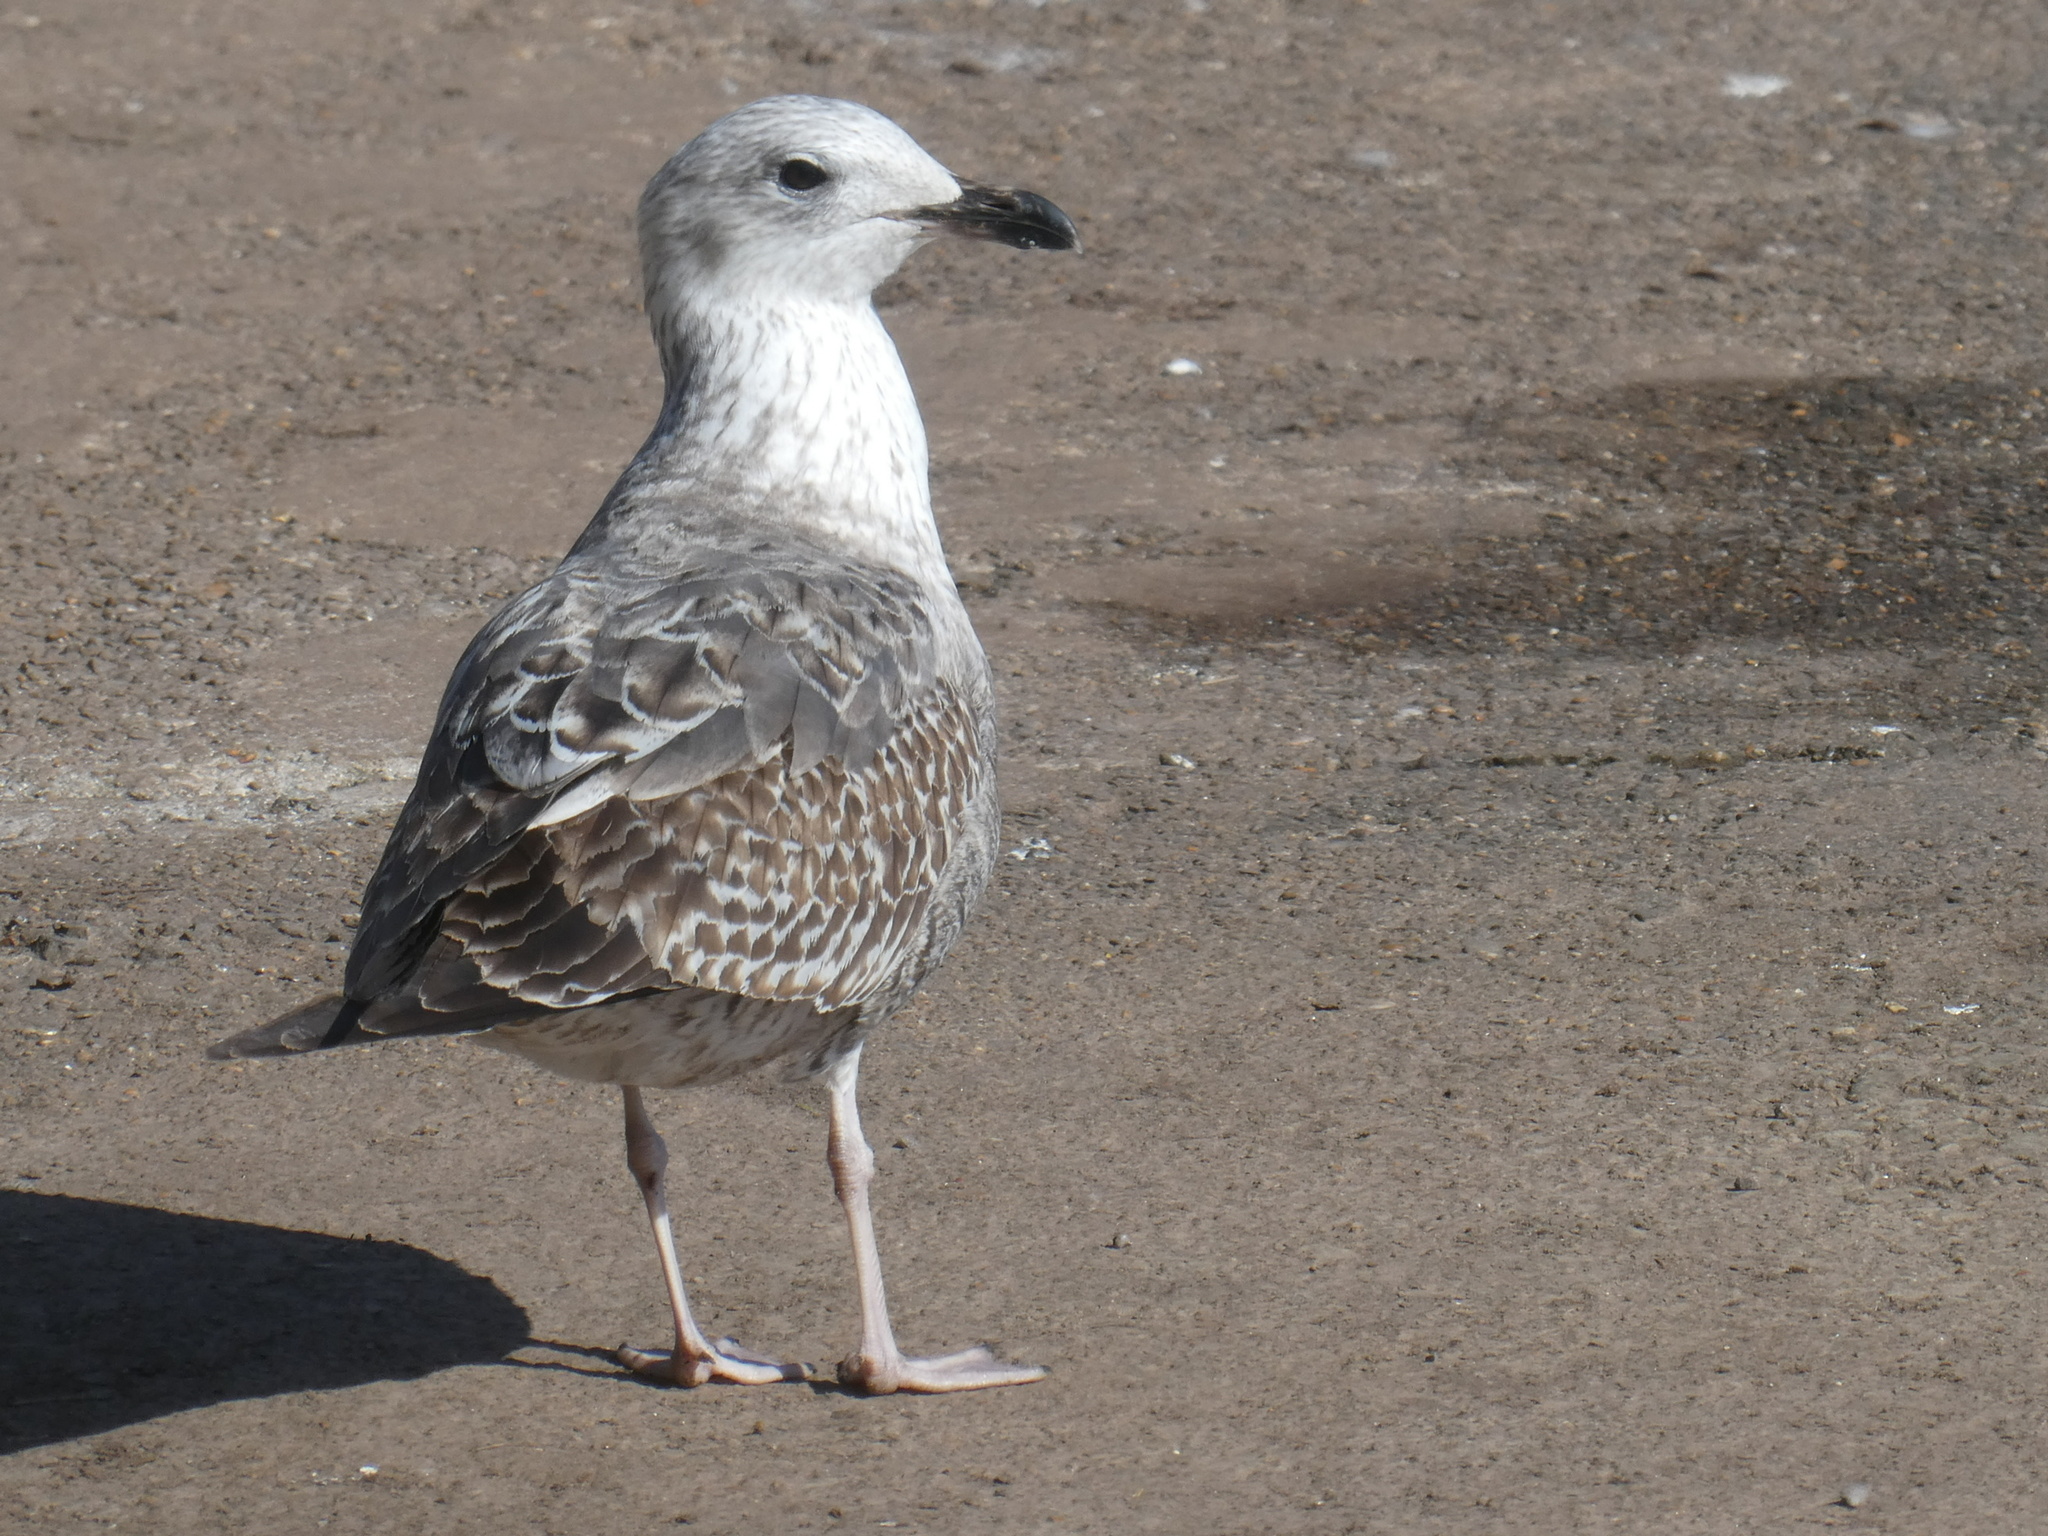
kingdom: Animalia
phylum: Chordata
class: Aves
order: Charadriiformes
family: Laridae
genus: Larus
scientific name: Larus argentatus
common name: Herring gull
